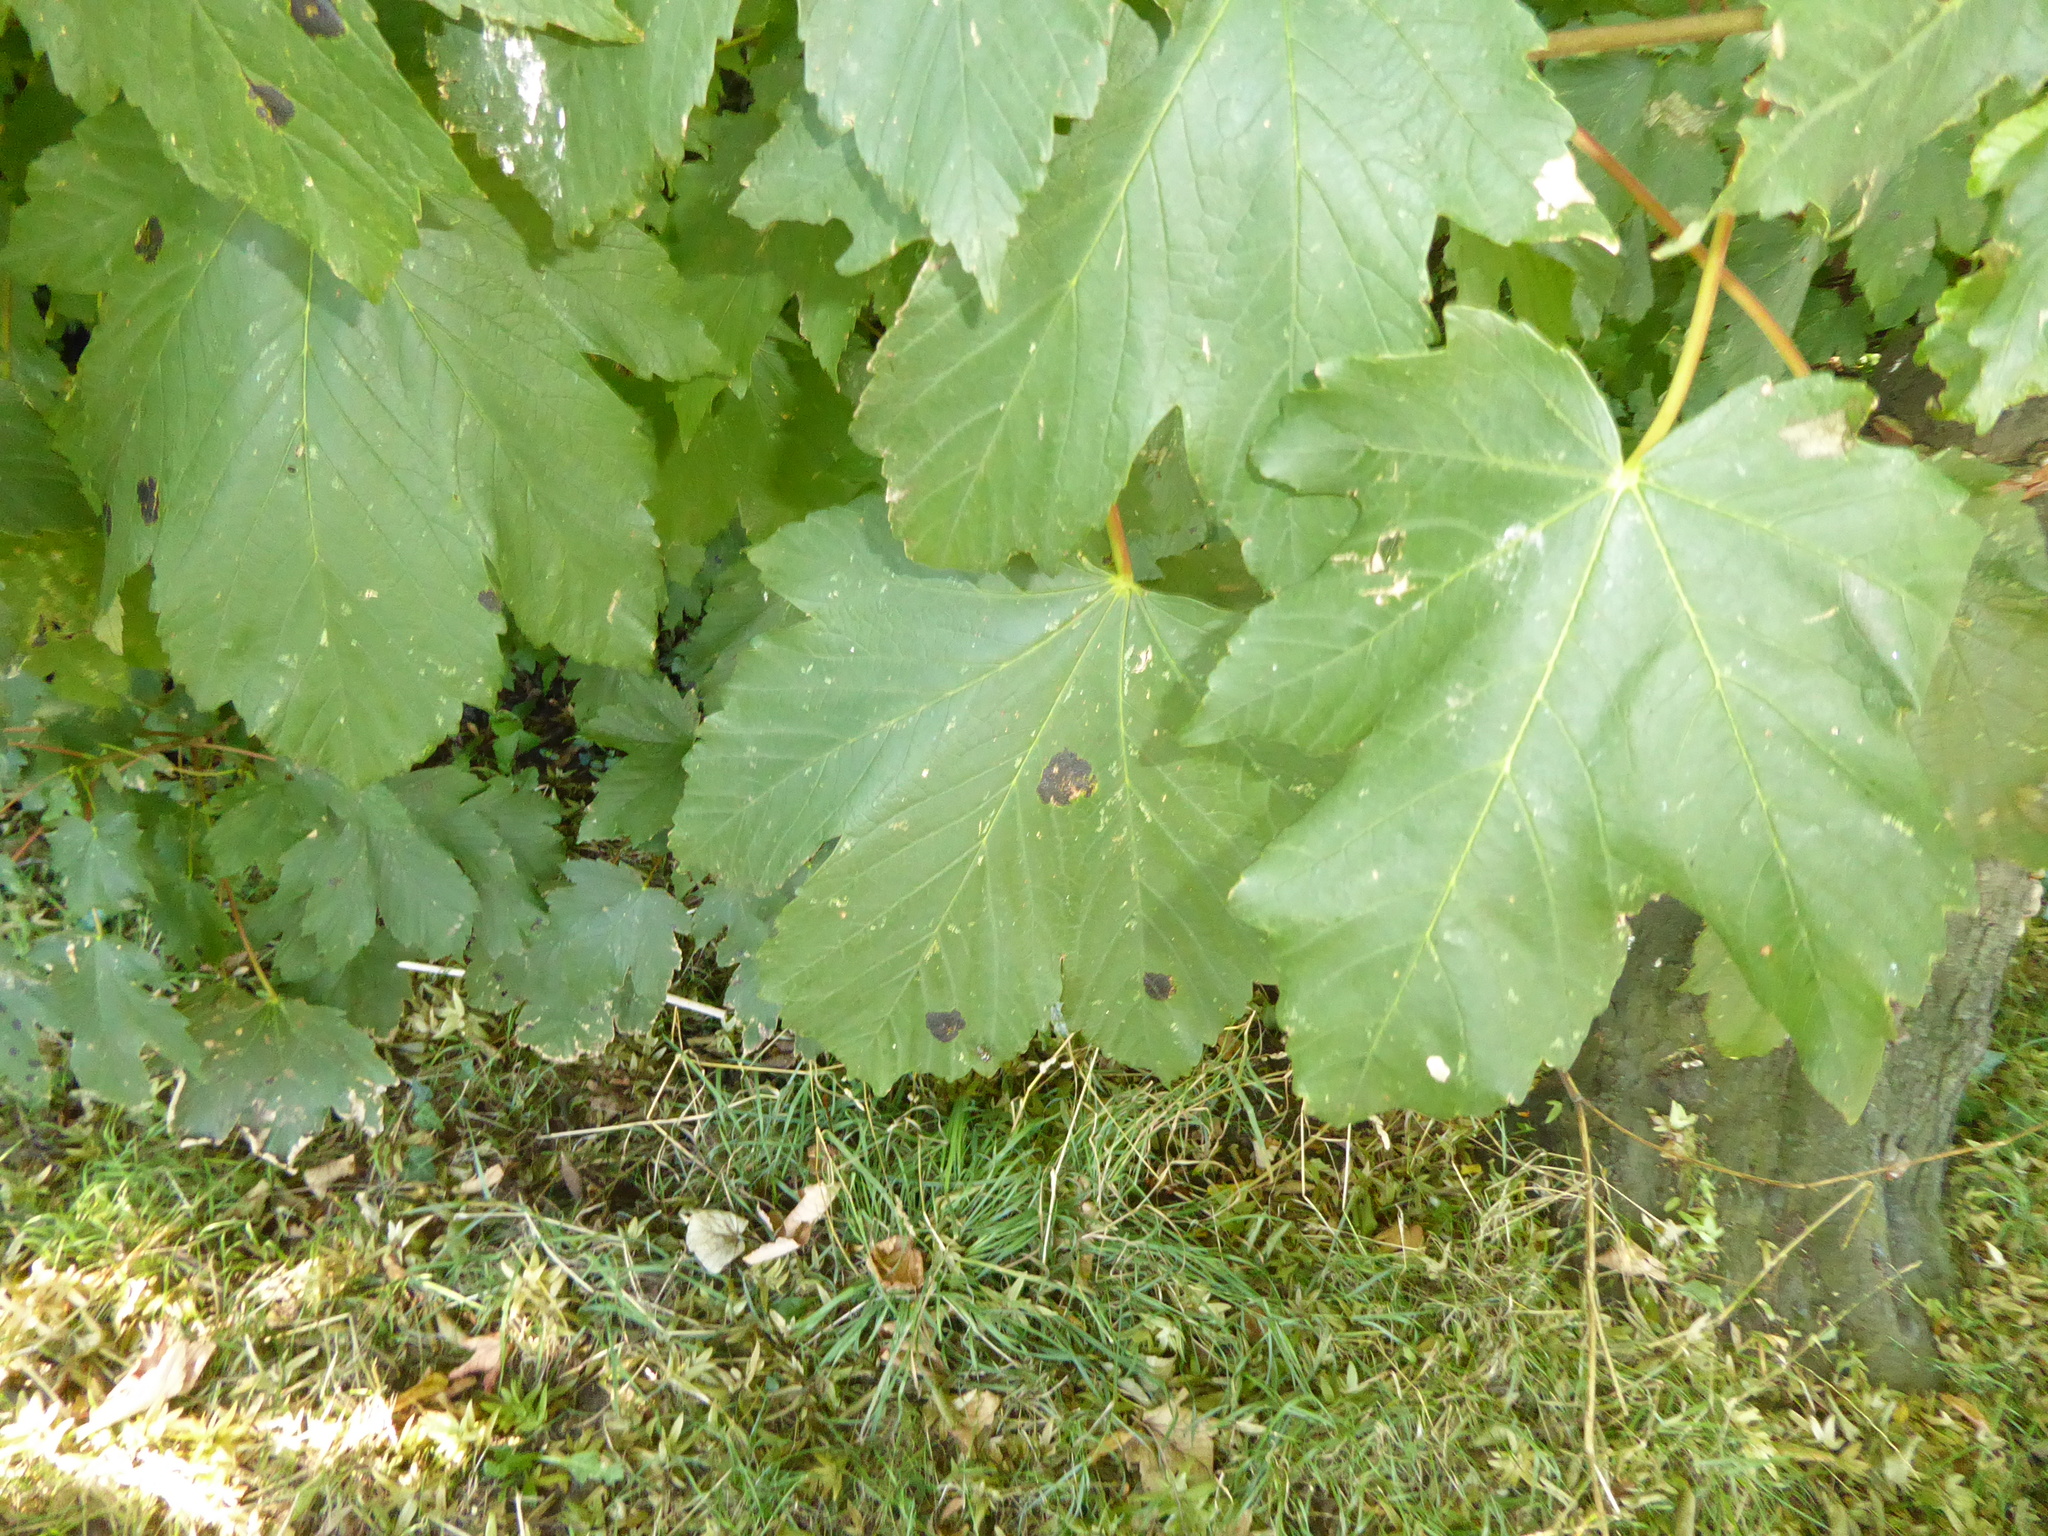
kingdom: Plantae
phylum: Tracheophyta
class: Magnoliopsida
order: Sapindales
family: Sapindaceae
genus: Acer
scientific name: Acer pseudoplatanus
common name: Sycamore
